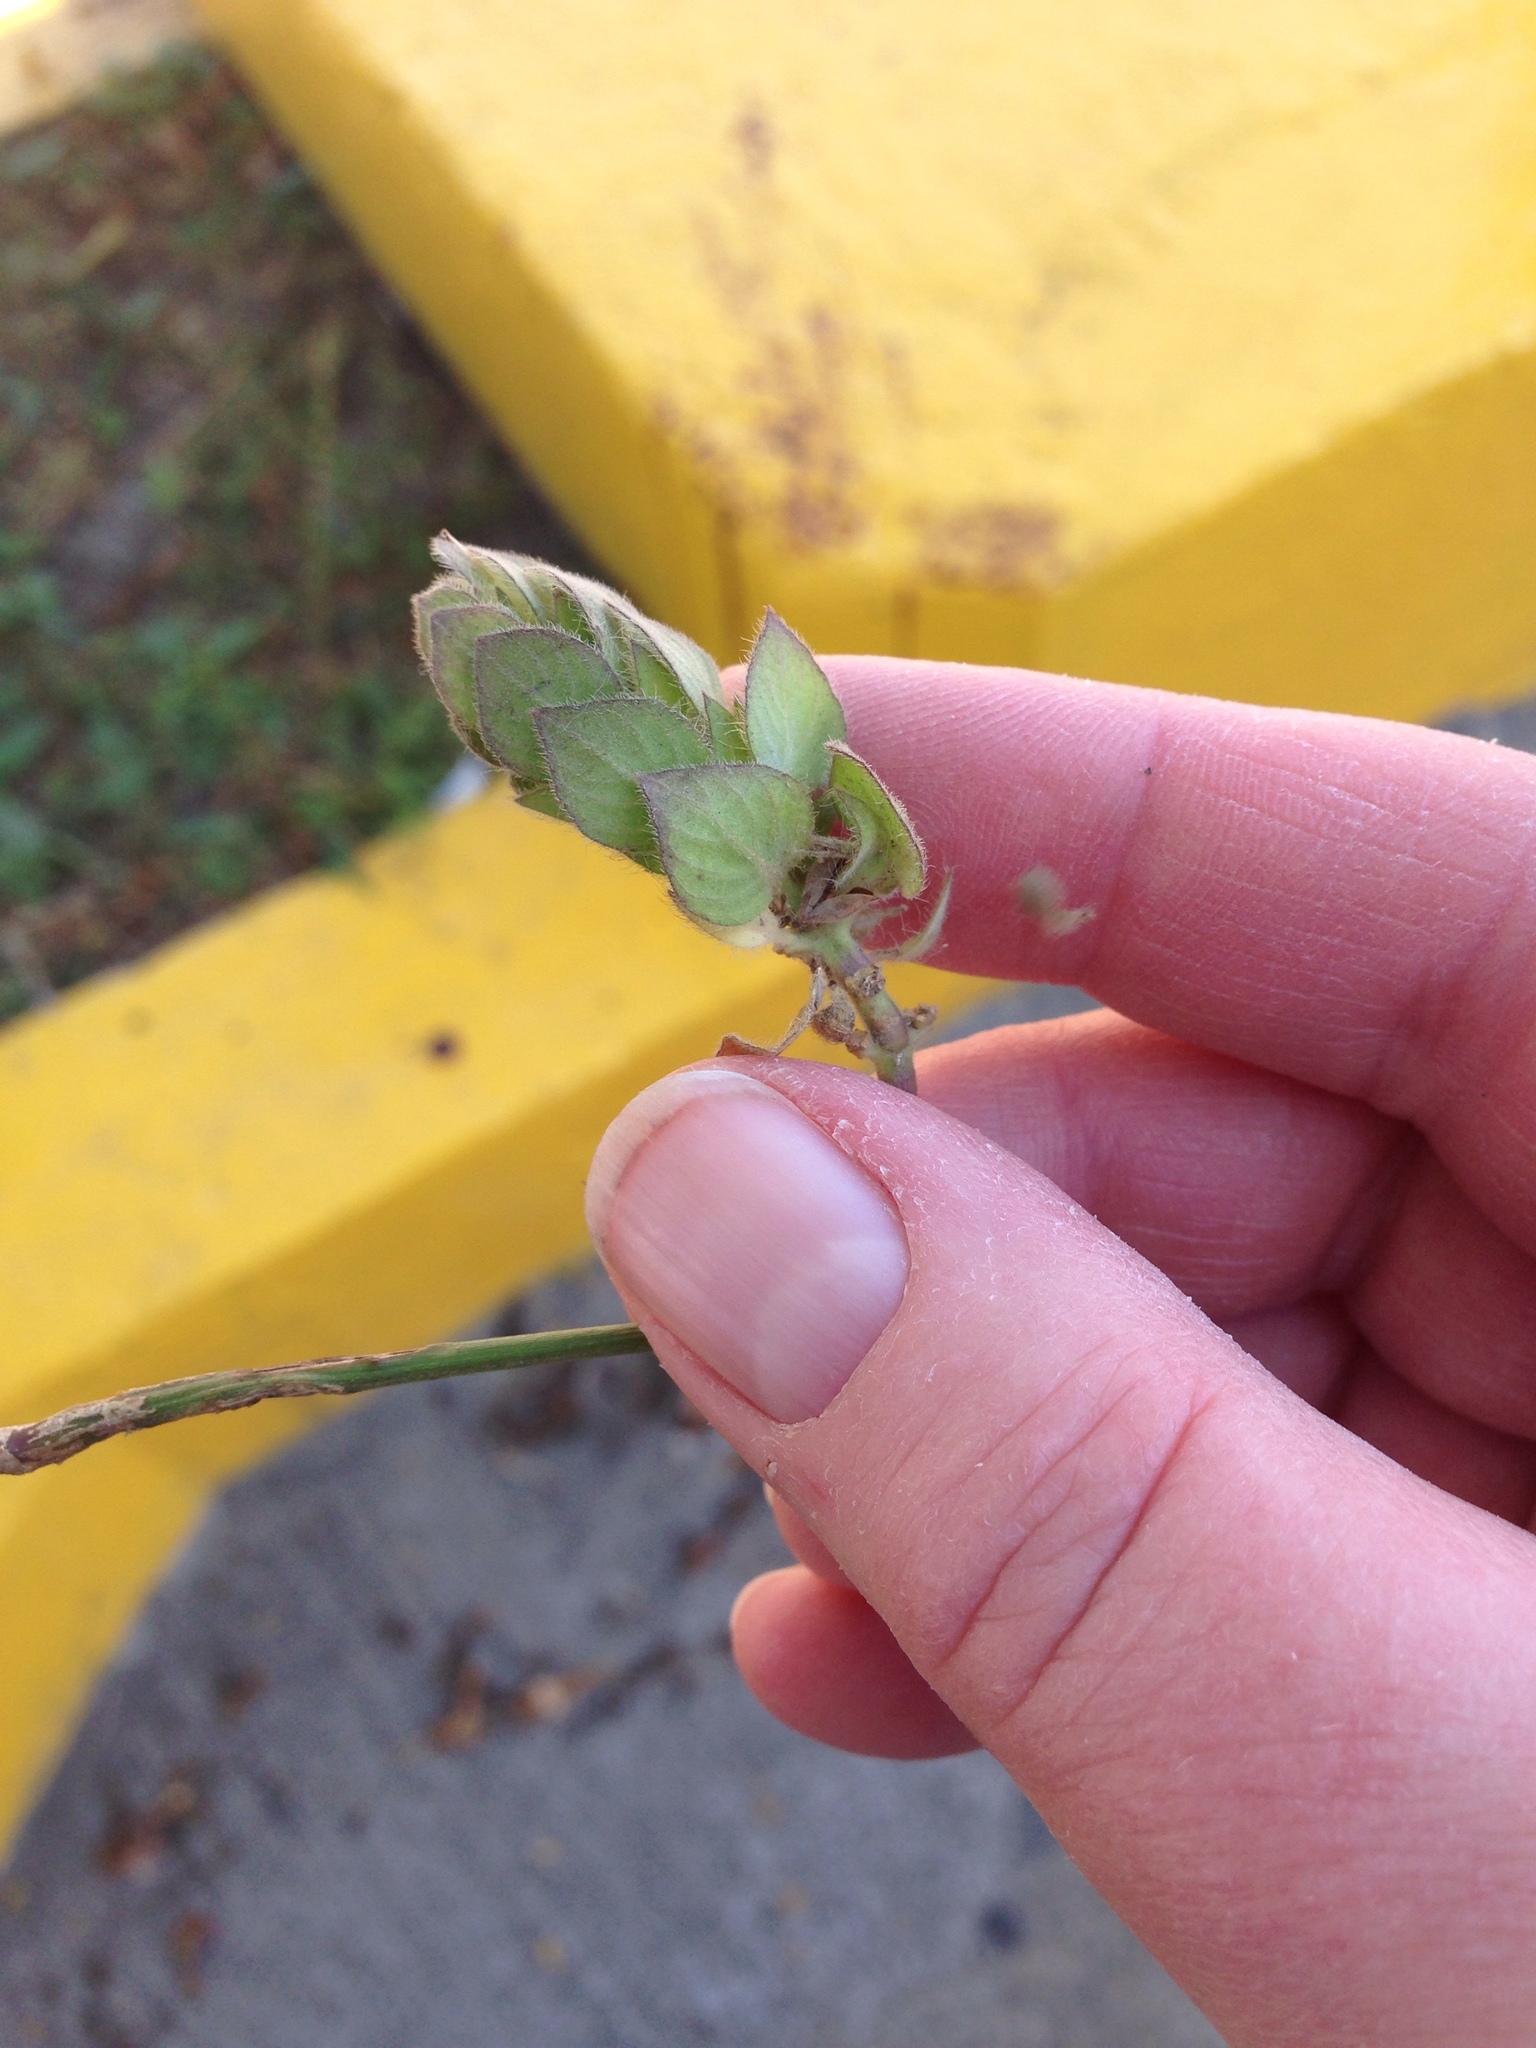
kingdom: Plantae
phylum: Tracheophyta
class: Magnoliopsida
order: Lamiales
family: Acanthaceae
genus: Ruellia
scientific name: Ruellia blechum
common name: Browne's blechum
